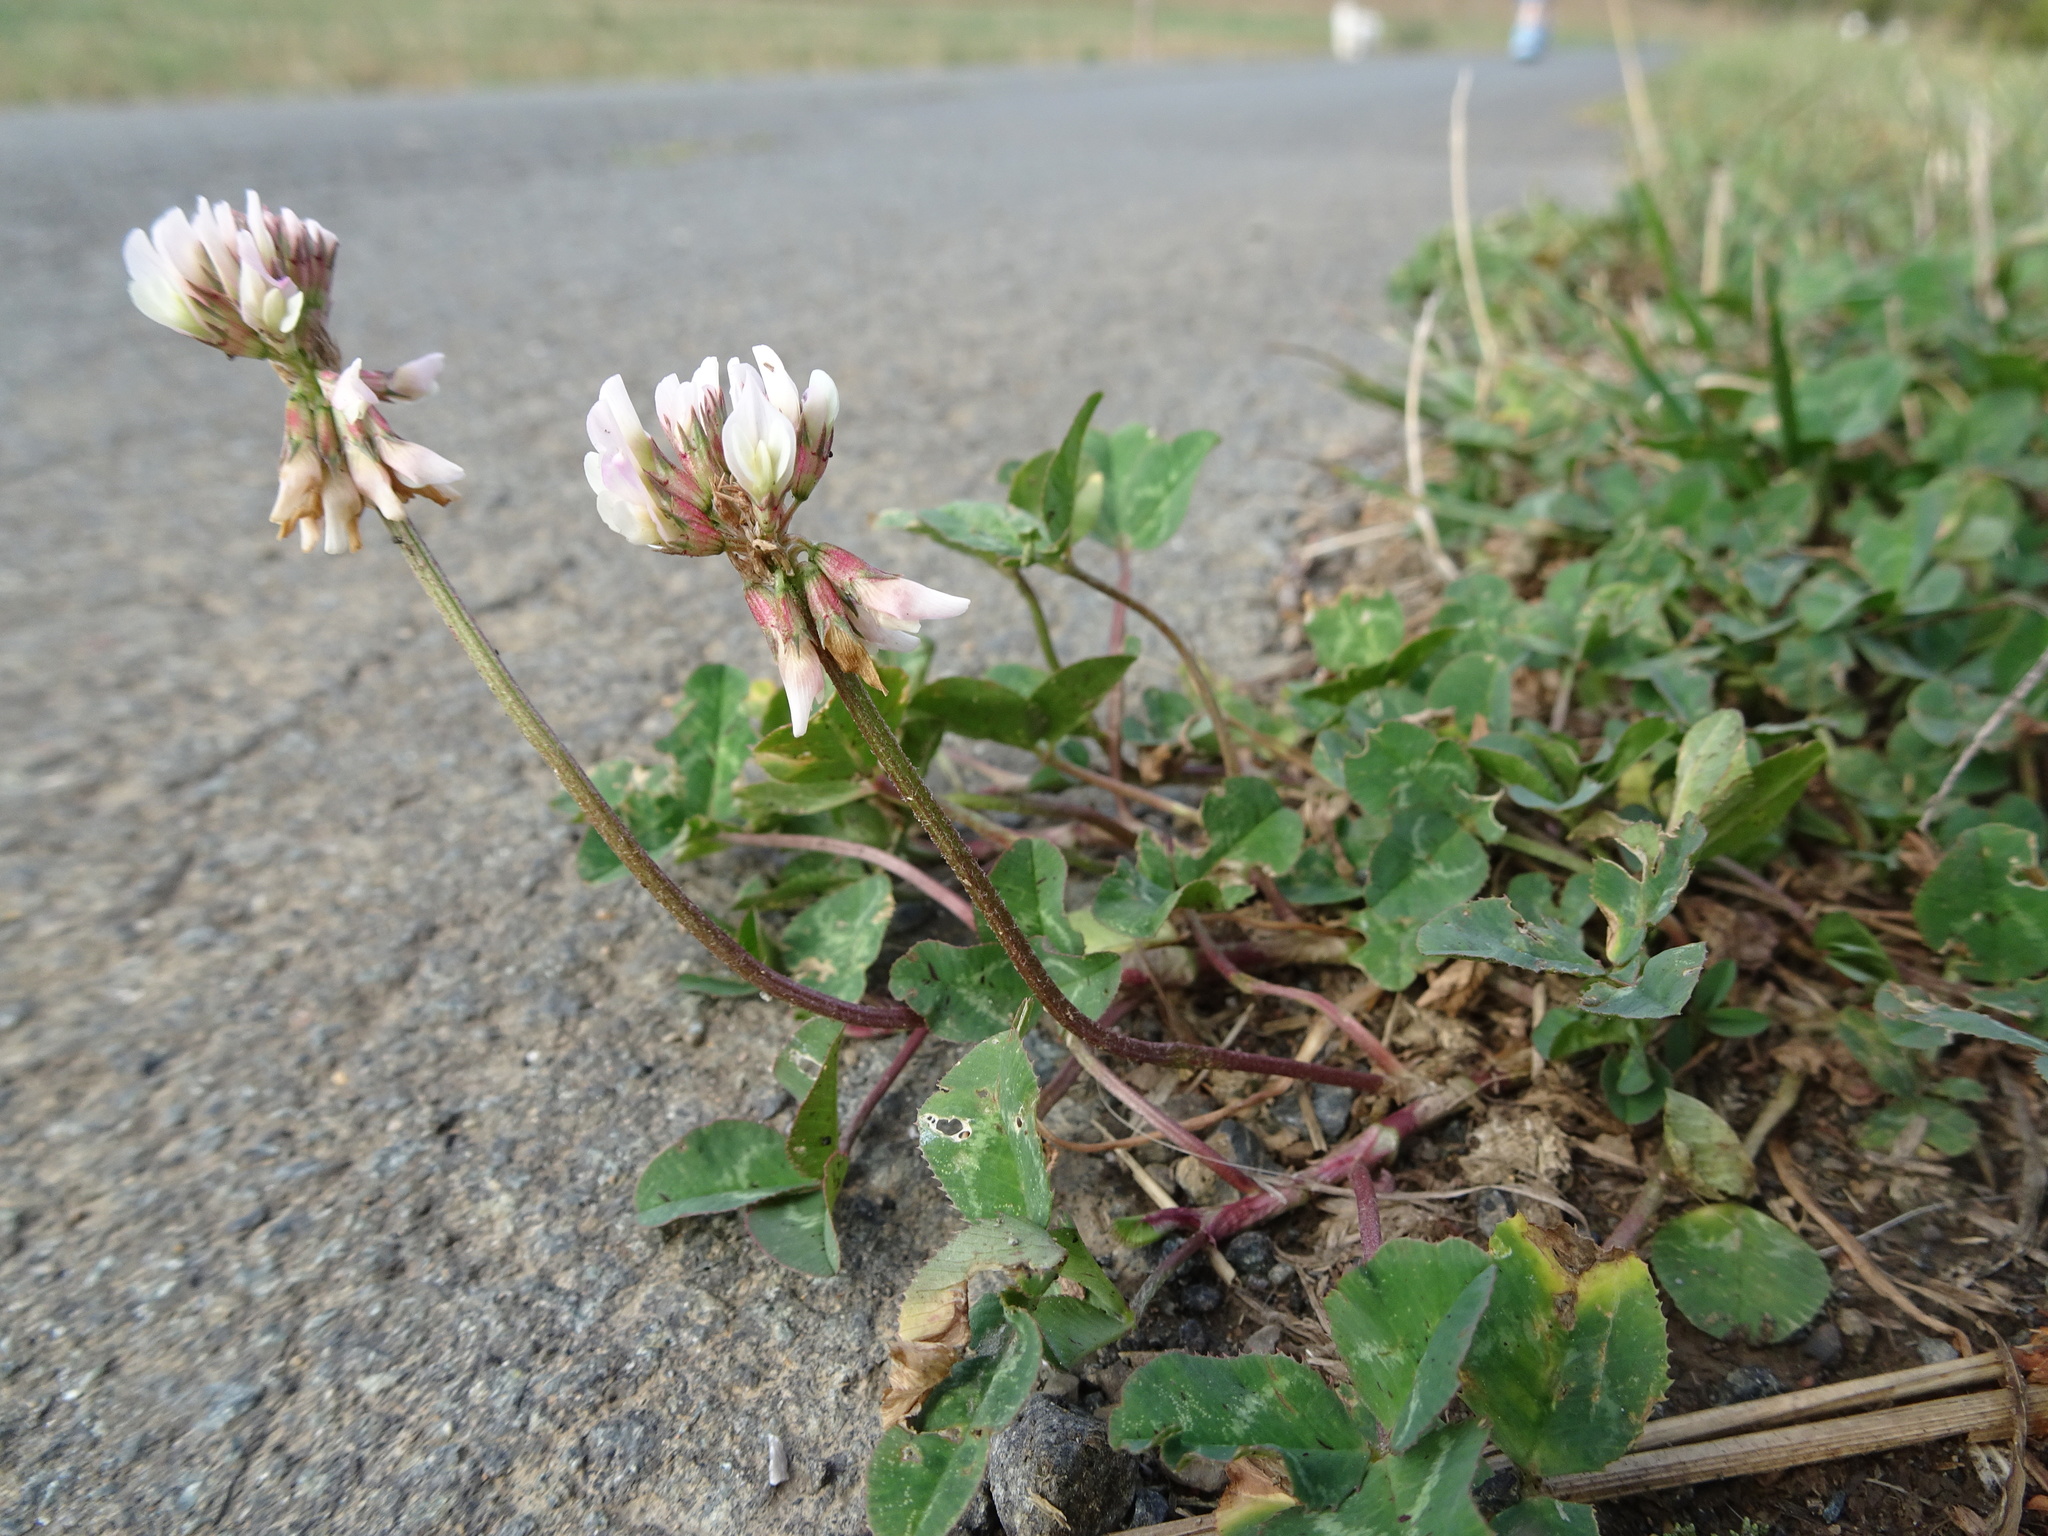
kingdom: Plantae
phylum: Tracheophyta
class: Magnoliopsida
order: Fabales
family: Fabaceae
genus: Trifolium
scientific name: Trifolium repens
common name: White clover
